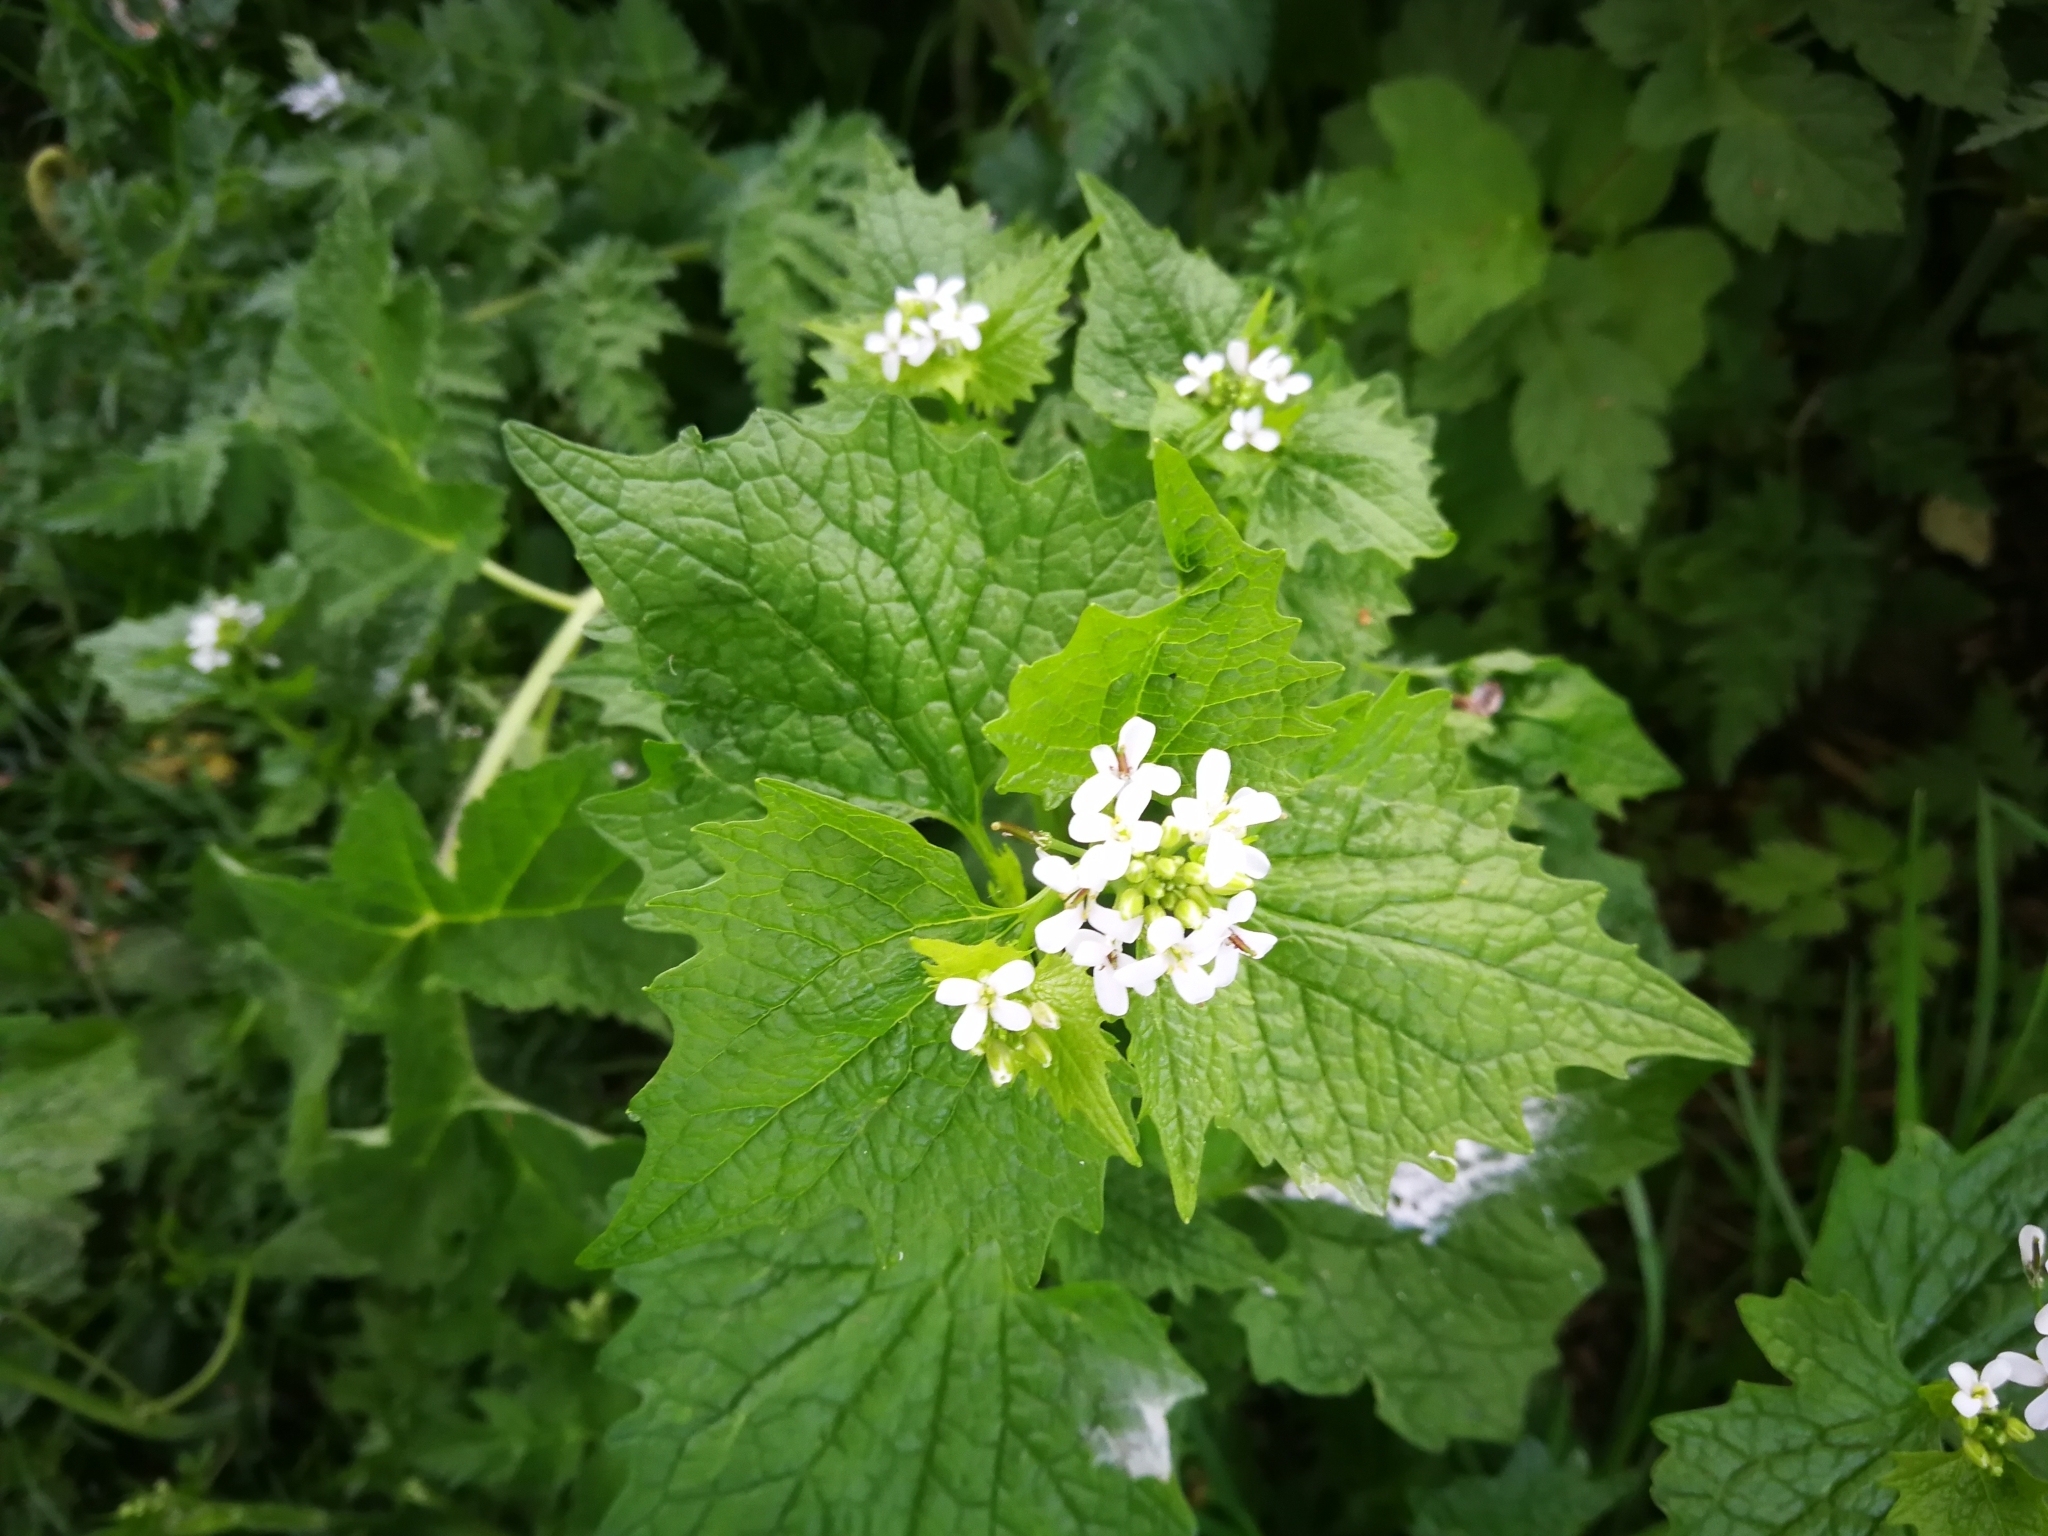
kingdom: Plantae
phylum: Tracheophyta
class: Magnoliopsida
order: Brassicales
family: Brassicaceae
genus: Alliaria
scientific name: Alliaria petiolata
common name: Garlic mustard
